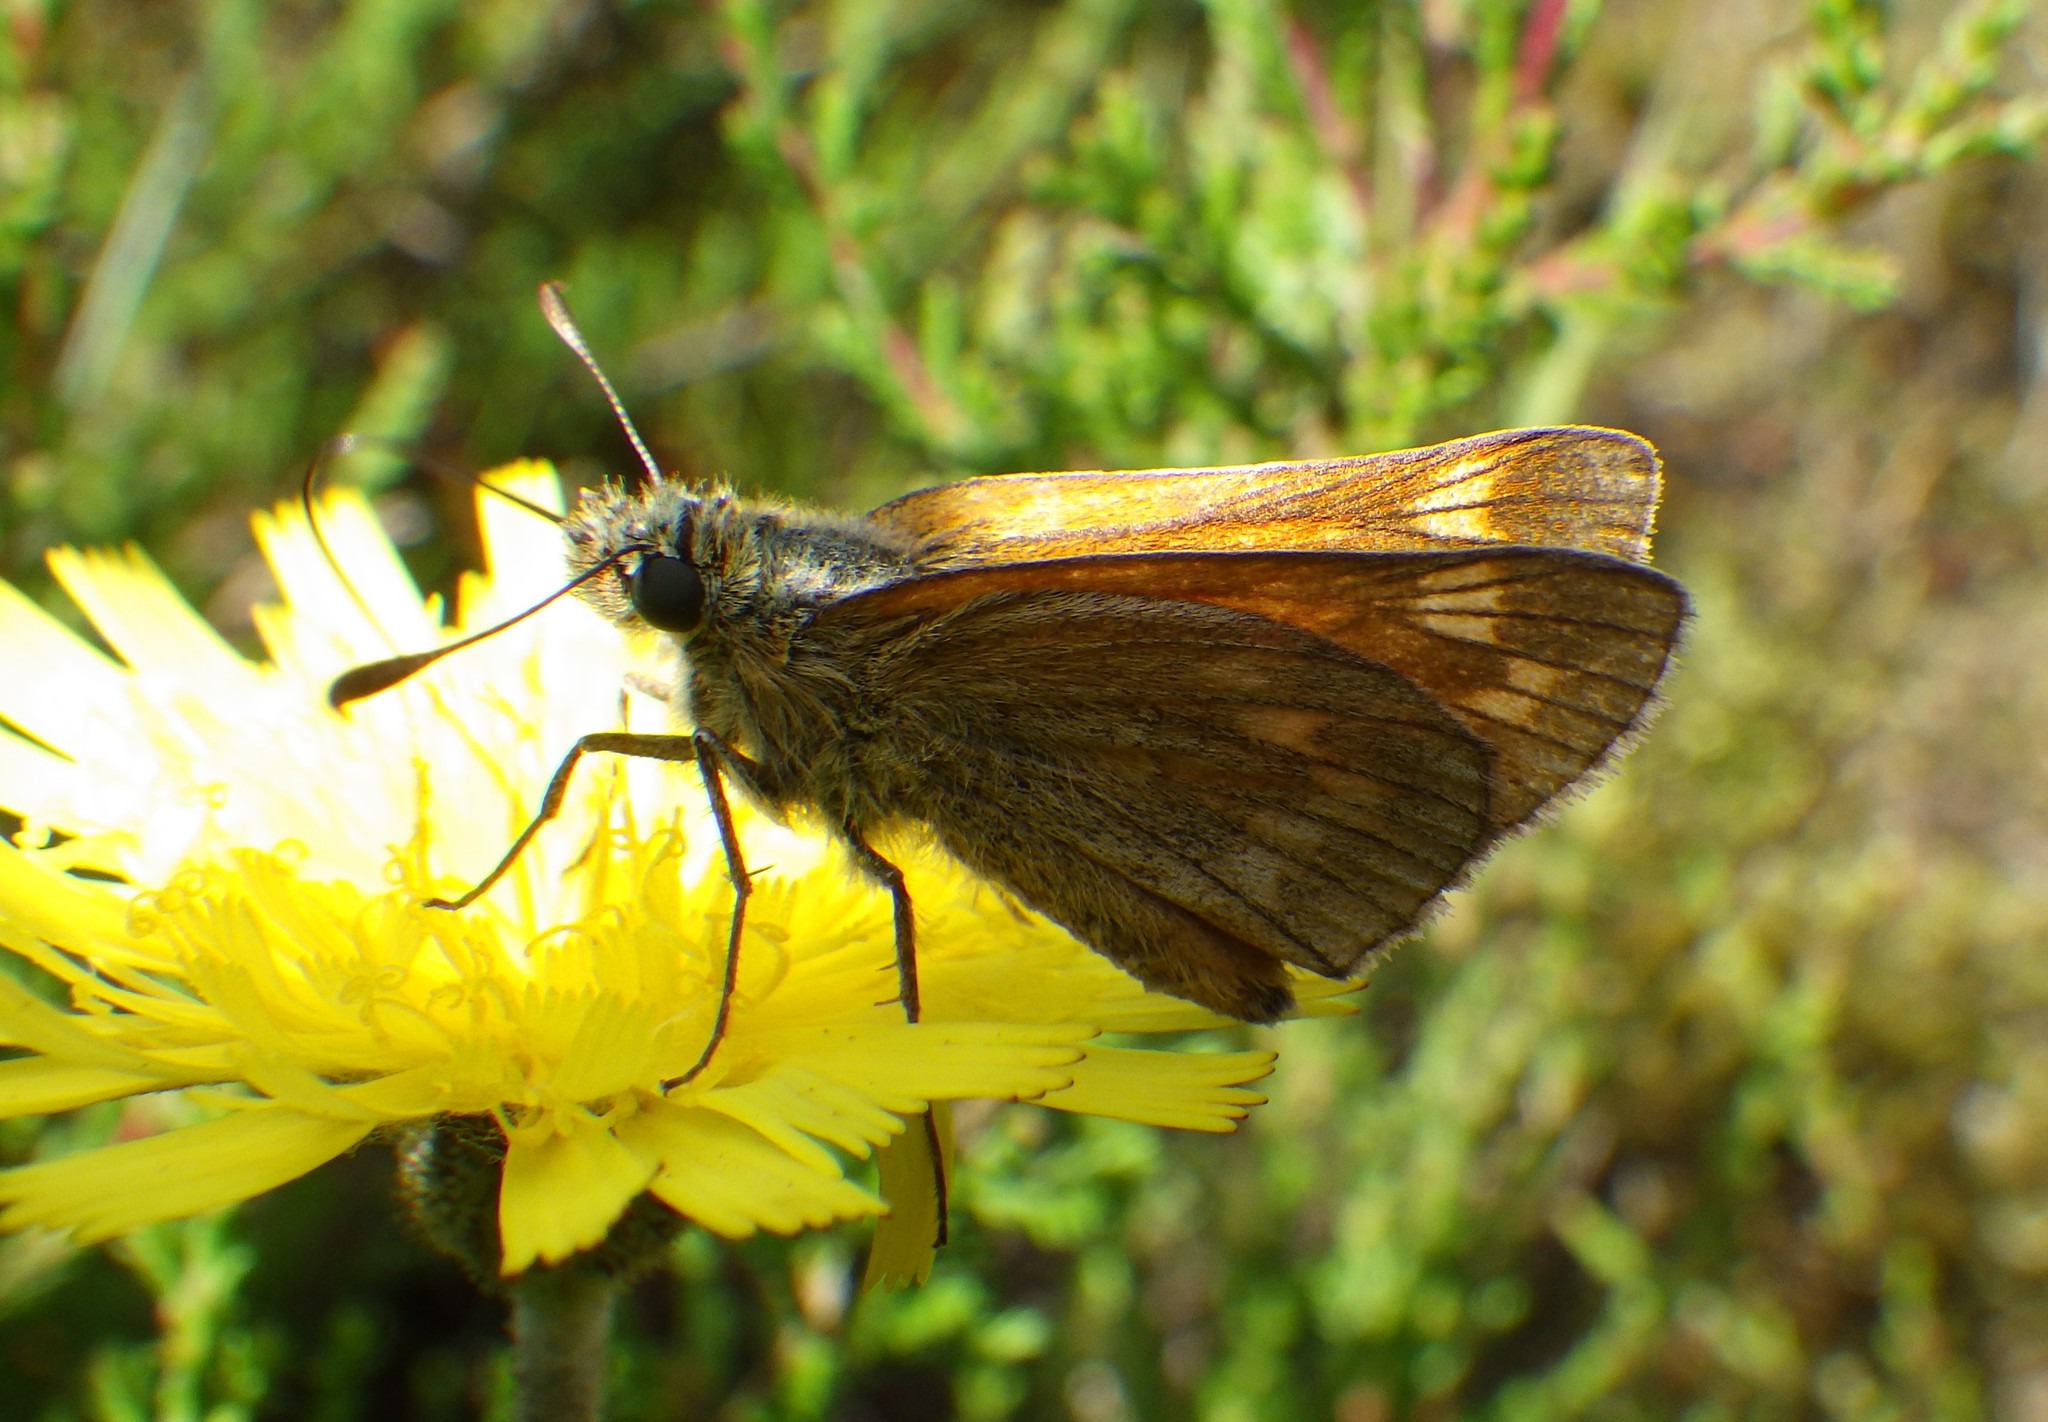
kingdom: Animalia
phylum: Arthropoda
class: Insecta
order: Lepidoptera
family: Hesperiidae
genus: Ochlodes
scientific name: Ochlodes venata
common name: Large skipper
